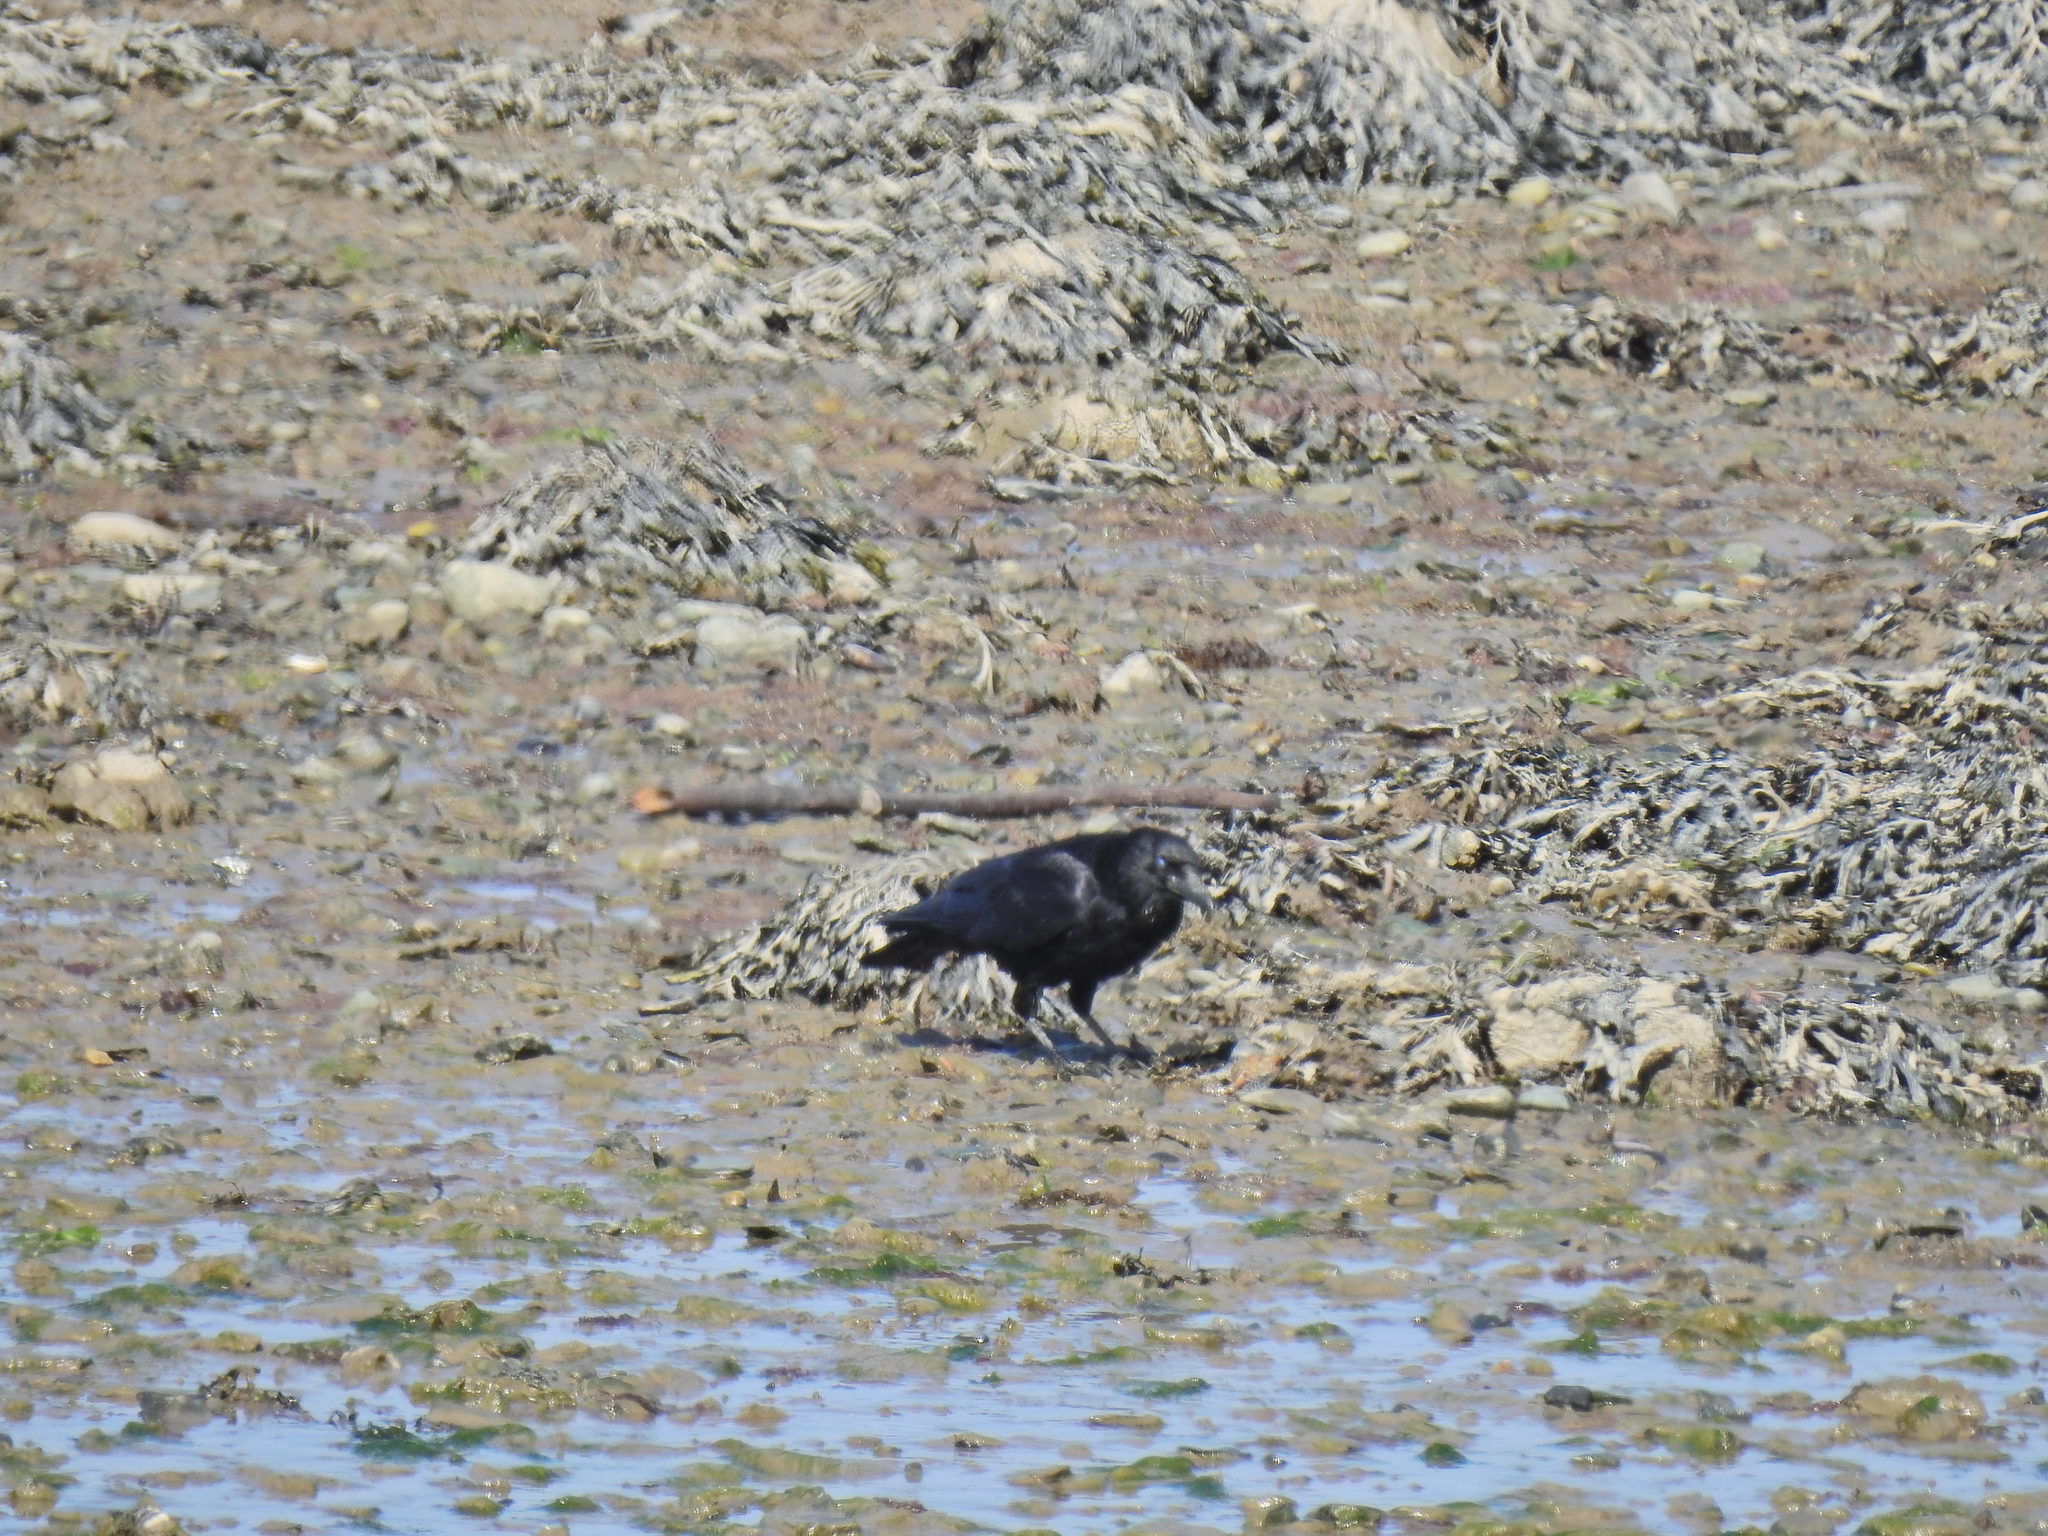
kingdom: Animalia
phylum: Chordata
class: Aves
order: Passeriformes
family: Corvidae
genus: Corvus
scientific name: Corvus corone
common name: Carrion crow
